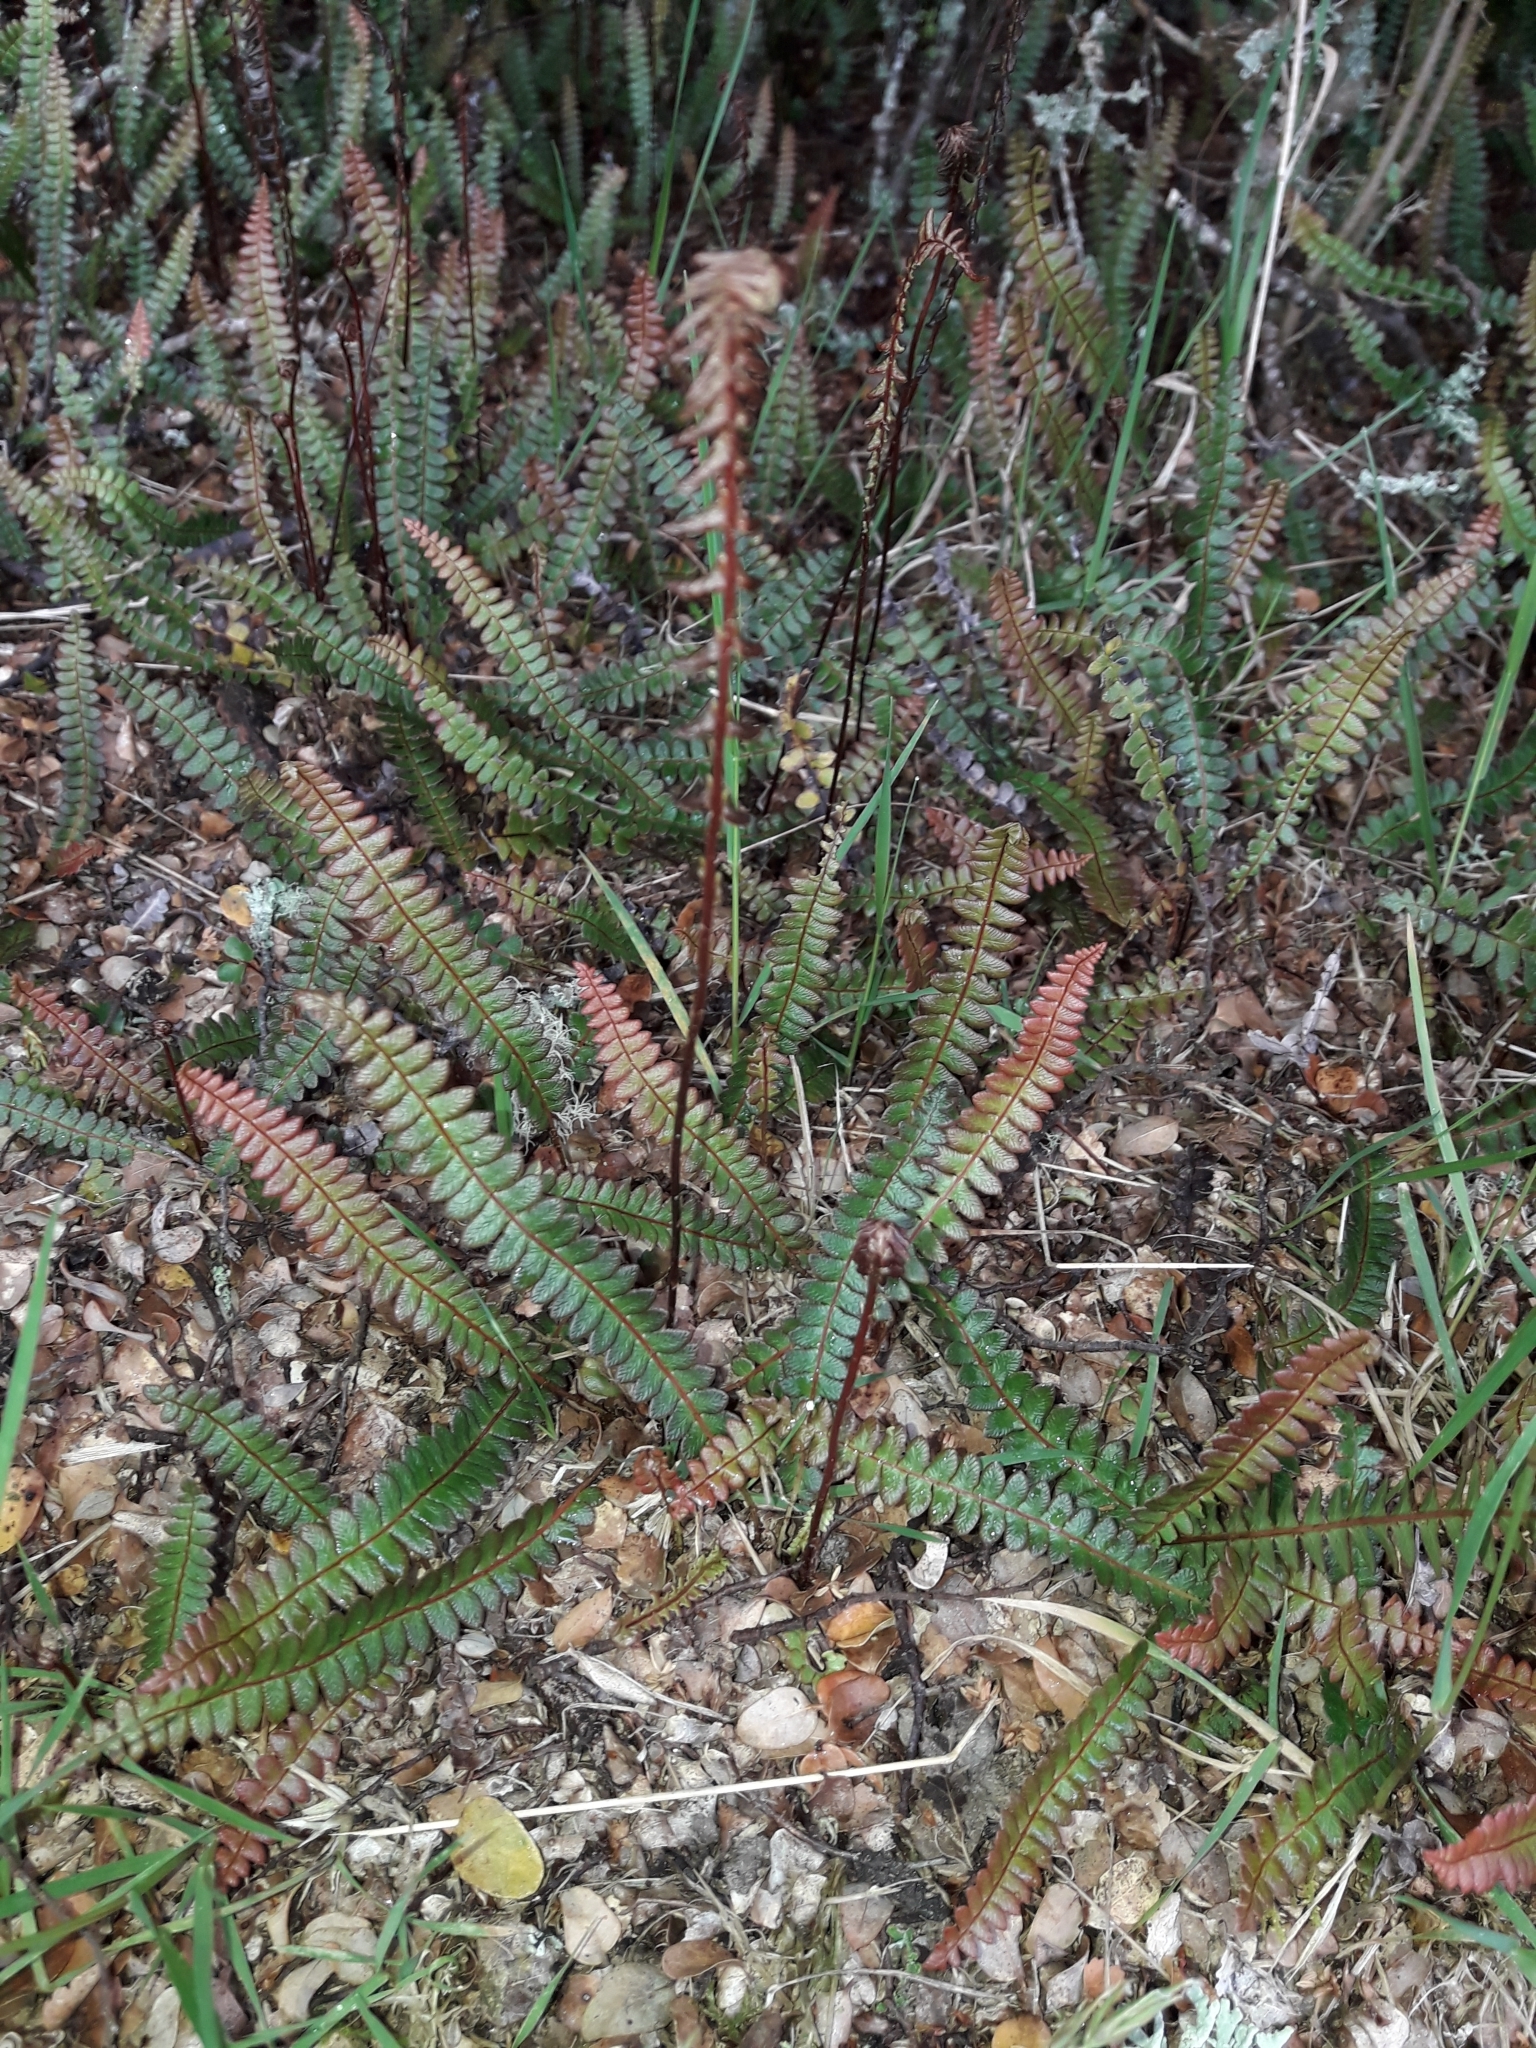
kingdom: Plantae
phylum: Tracheophyta
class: Polypodiopsida
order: Polypodiales
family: Blechnaceae
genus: Austroblechnum
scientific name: Austroblechnum penna-marina
